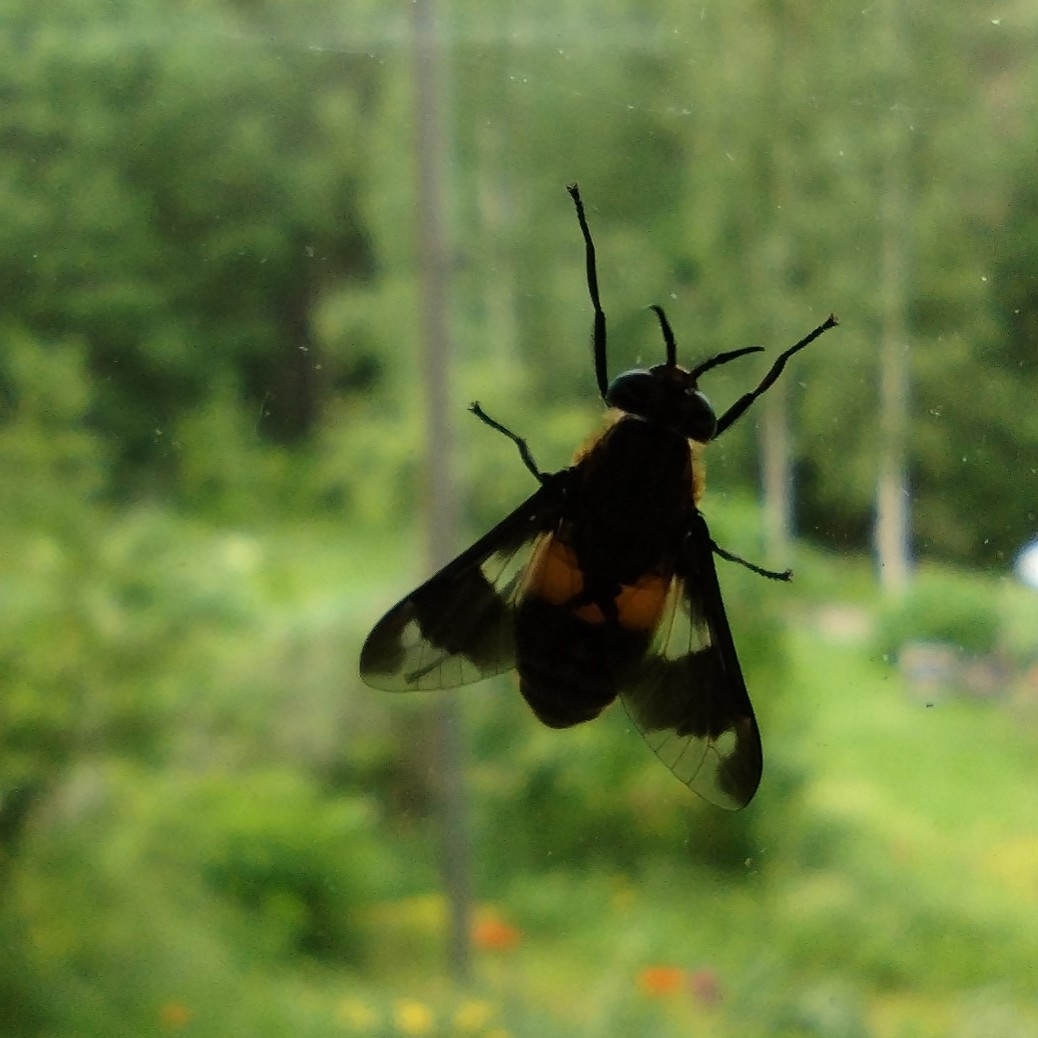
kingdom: Animalia
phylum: Arthropoda
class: Insecta
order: Diptera
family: Tabanidae
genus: Chrysops
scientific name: Chrysops caecutiens
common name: Splayed deerfly
